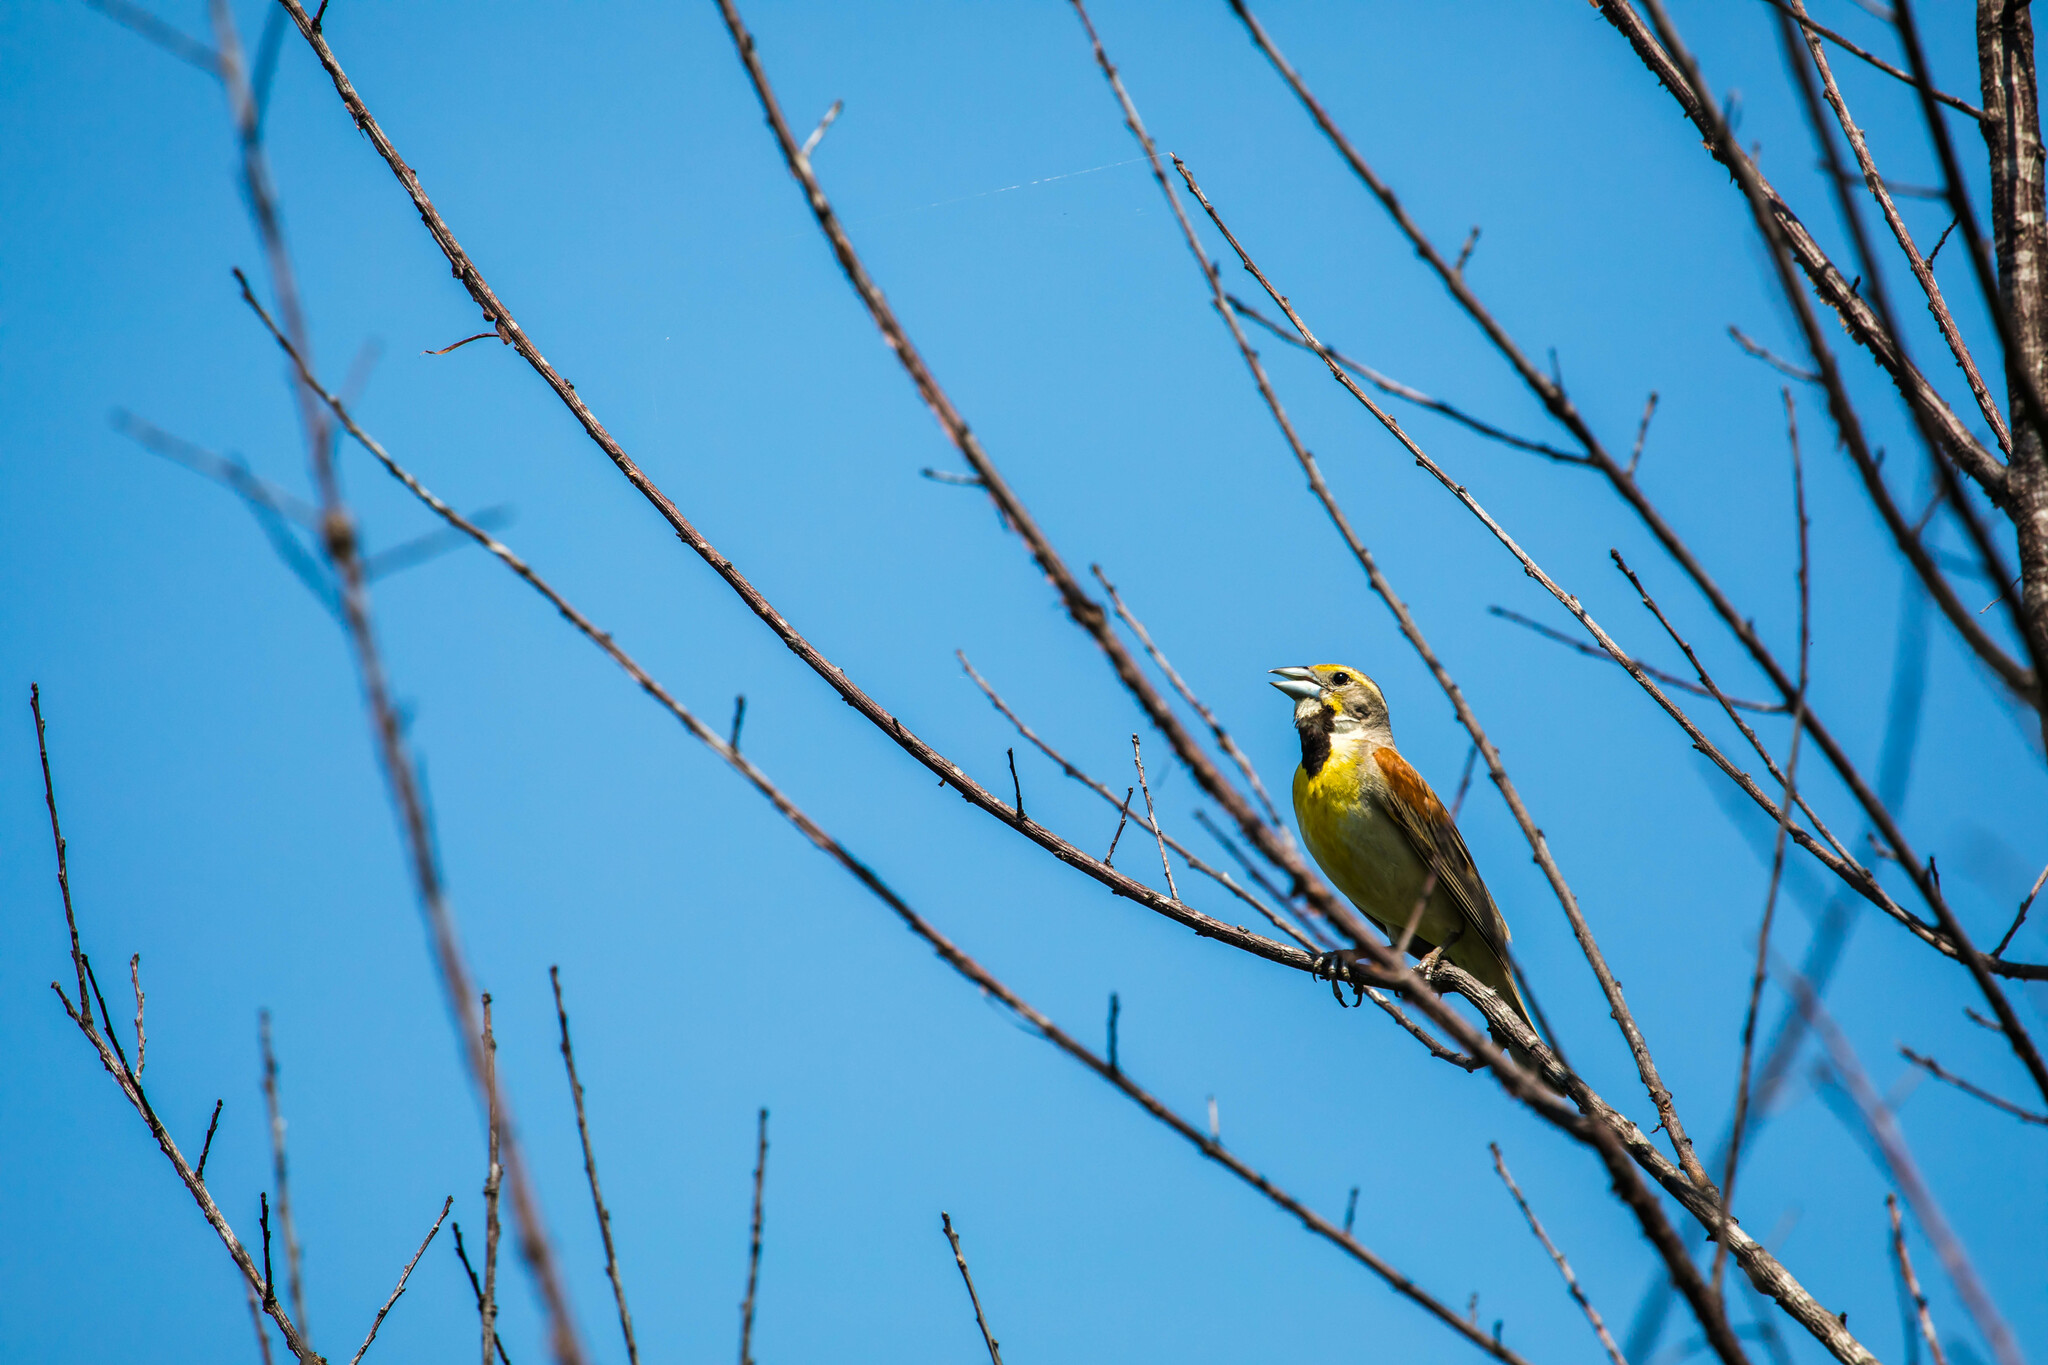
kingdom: Animalia
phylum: Chordata
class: Aves
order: Passeriformes
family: Cardinalidae
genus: Spiza
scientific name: Spiza americana
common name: Dickcissel
